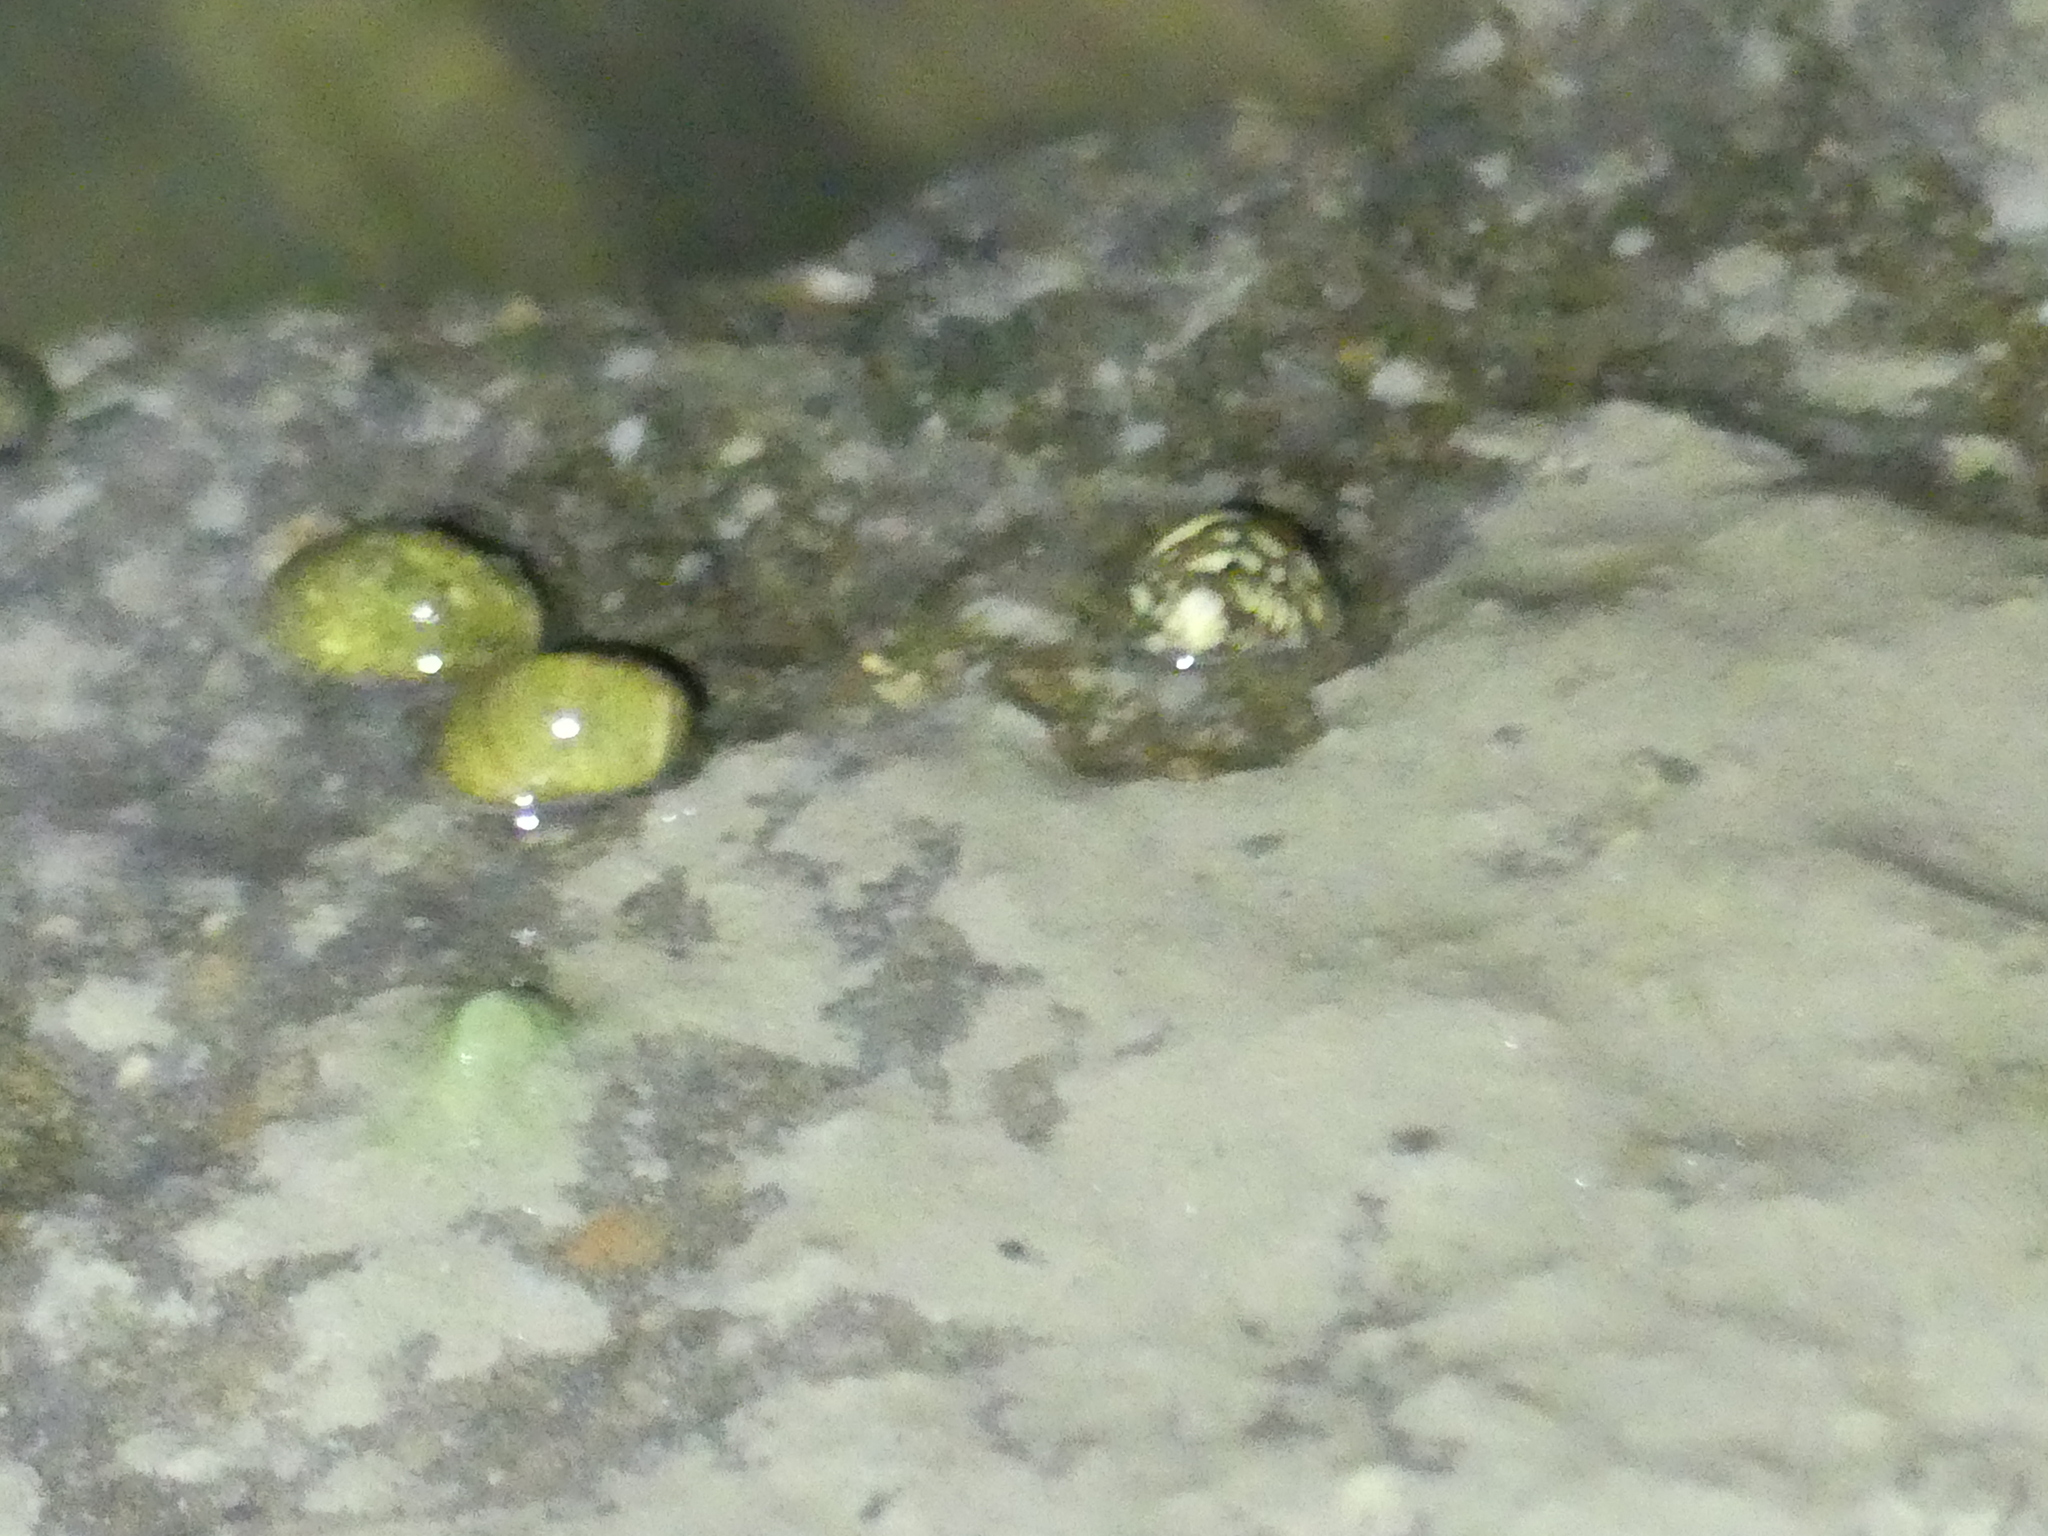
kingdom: Animalia
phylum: Mollusca
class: Gastropoda
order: Cycloneritida
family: Neritidae
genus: Theodoxus
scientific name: Theodoxus fluviatilis
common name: River nerite
